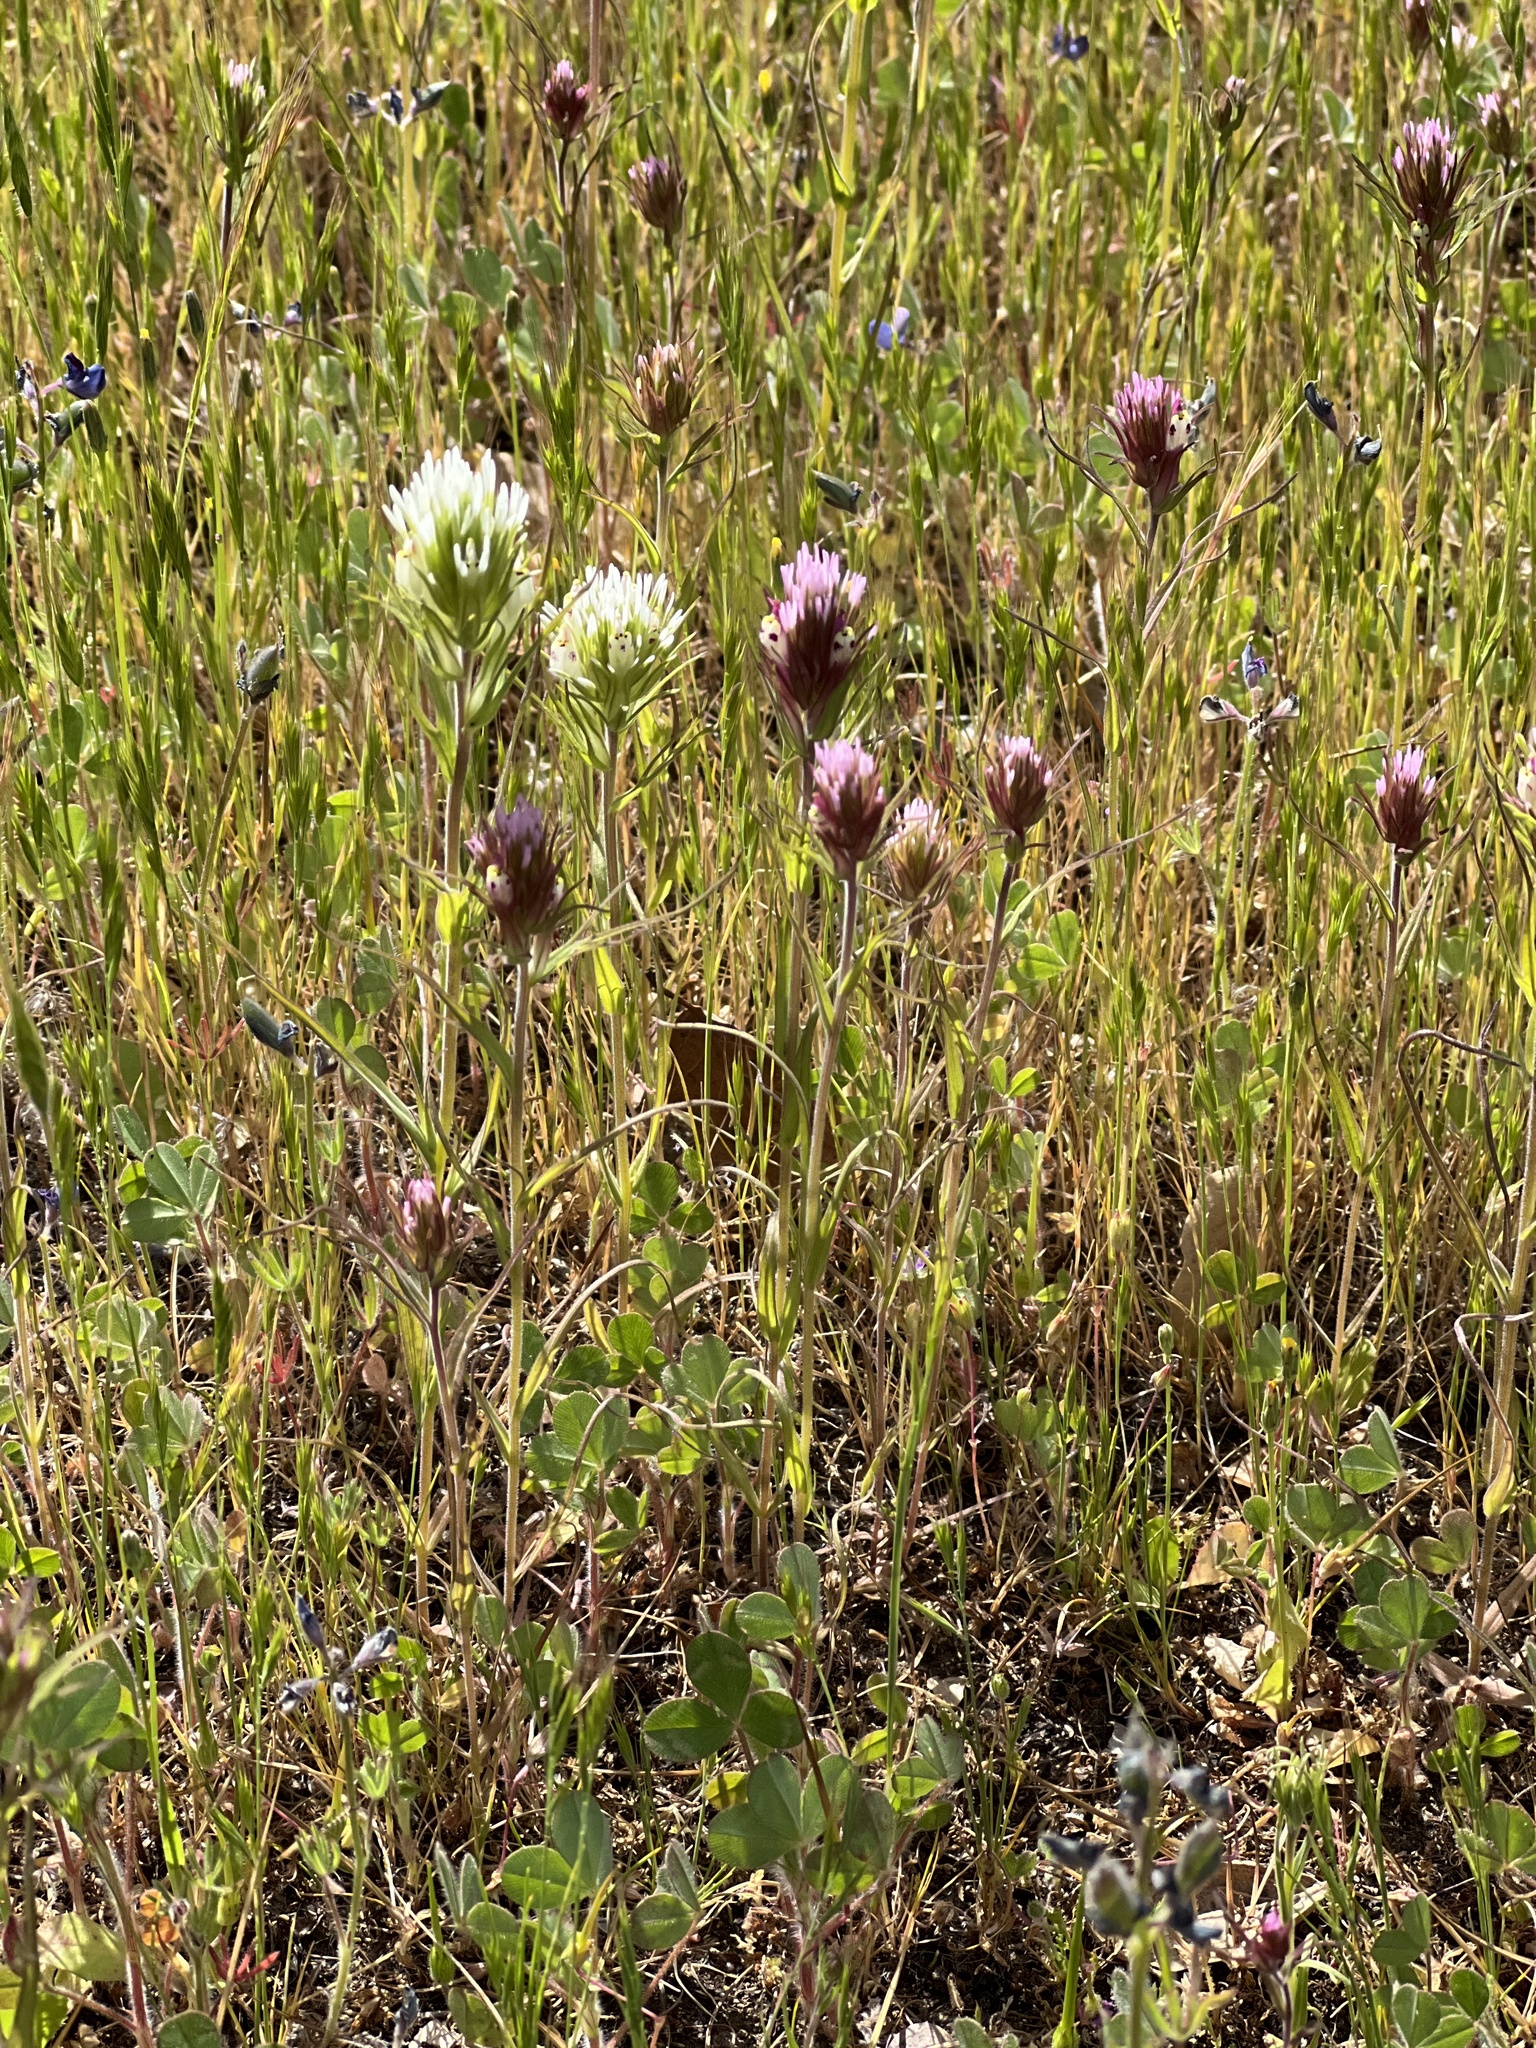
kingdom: Plantae
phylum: Tracheophyta
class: Magnoliopsida
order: Lamiales
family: Orobanchaceae
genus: Castilleja
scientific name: Castilleja densiflora
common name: Dense-flower indian paintbrush
